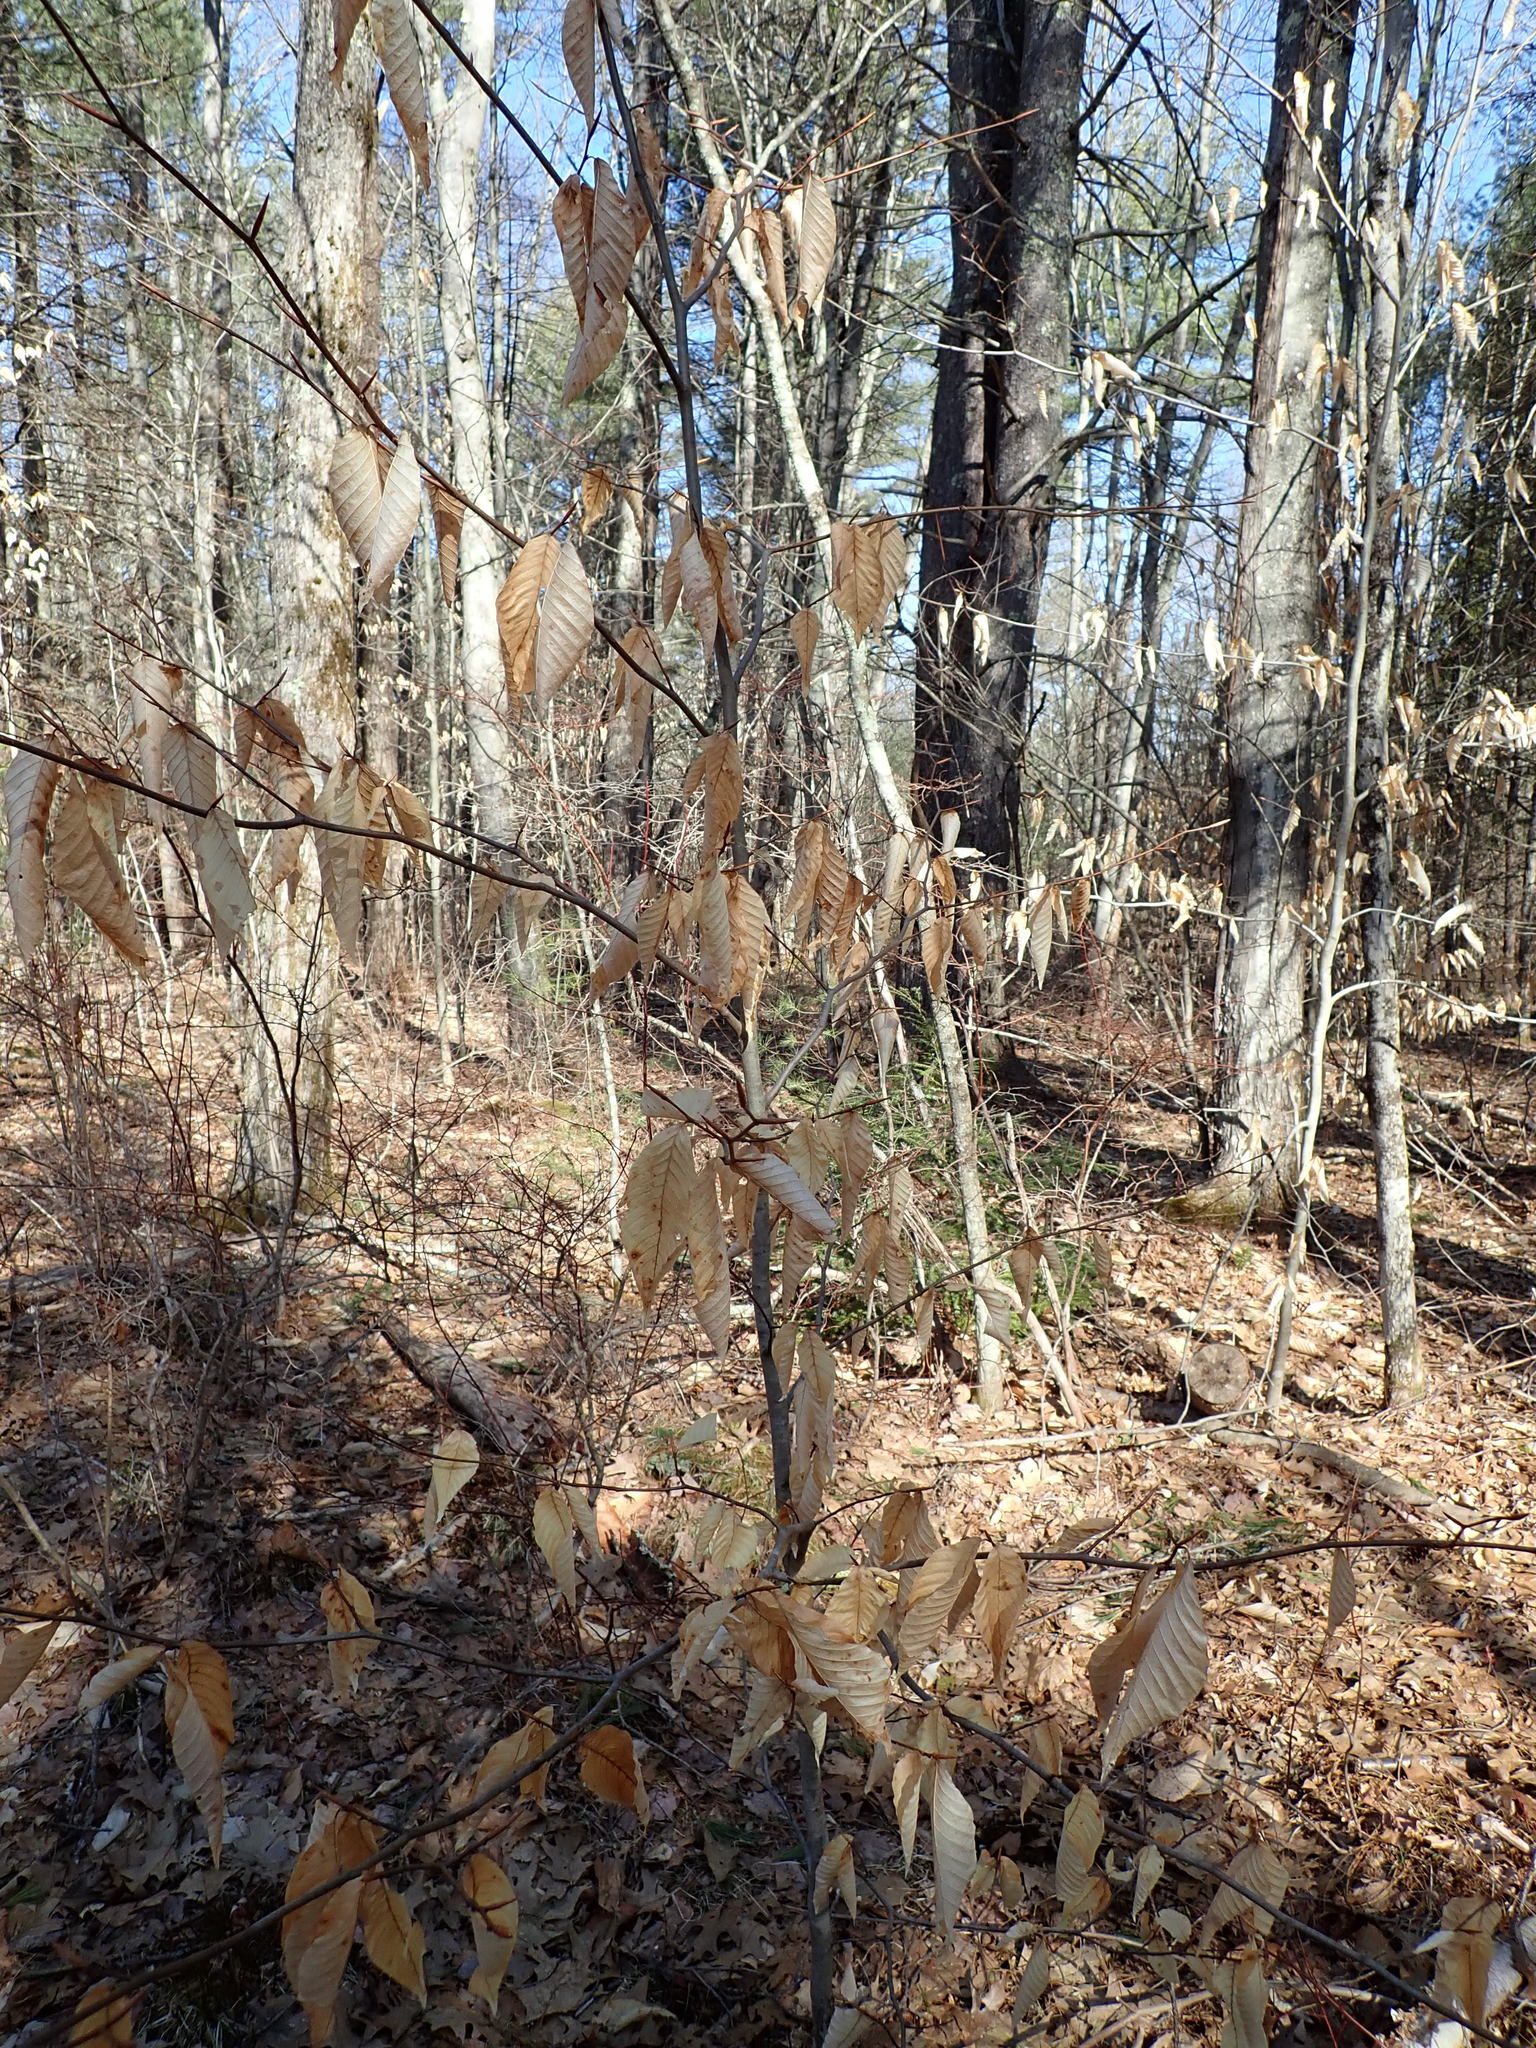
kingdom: Plantae
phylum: Tracheophyta
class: Magnoliopsida
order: Fagales
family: Fagaceae
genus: Fagus
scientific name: Fagus grandifolia
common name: American beech
